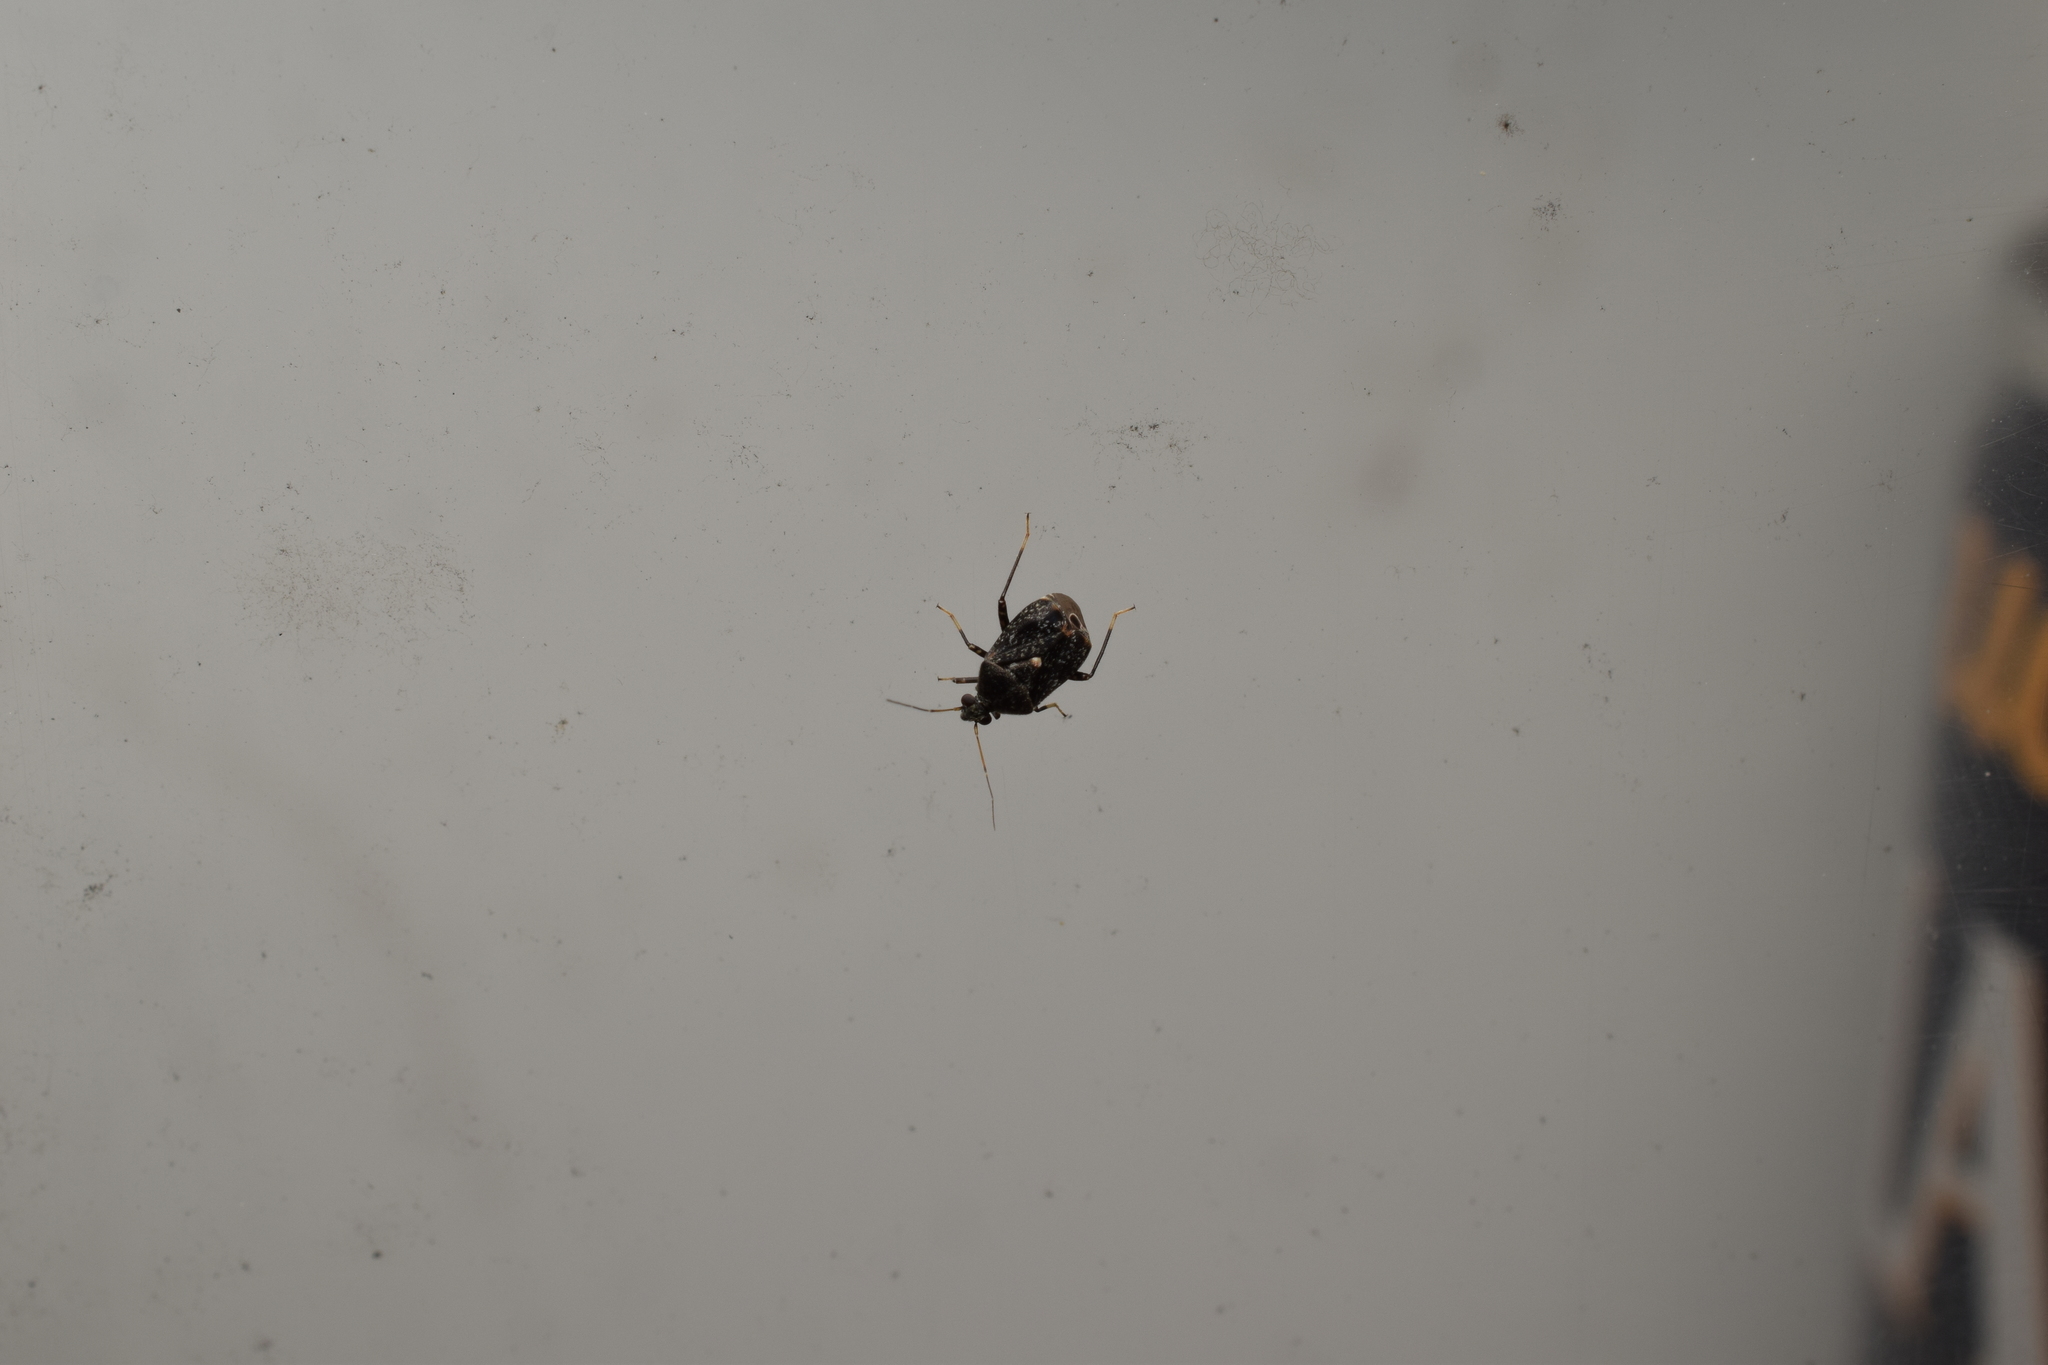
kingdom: Animalia
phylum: Arthropoda
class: Insecta
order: Hemiptera
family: Miridae
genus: Charagochilus
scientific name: Charagochilus angusticollis
